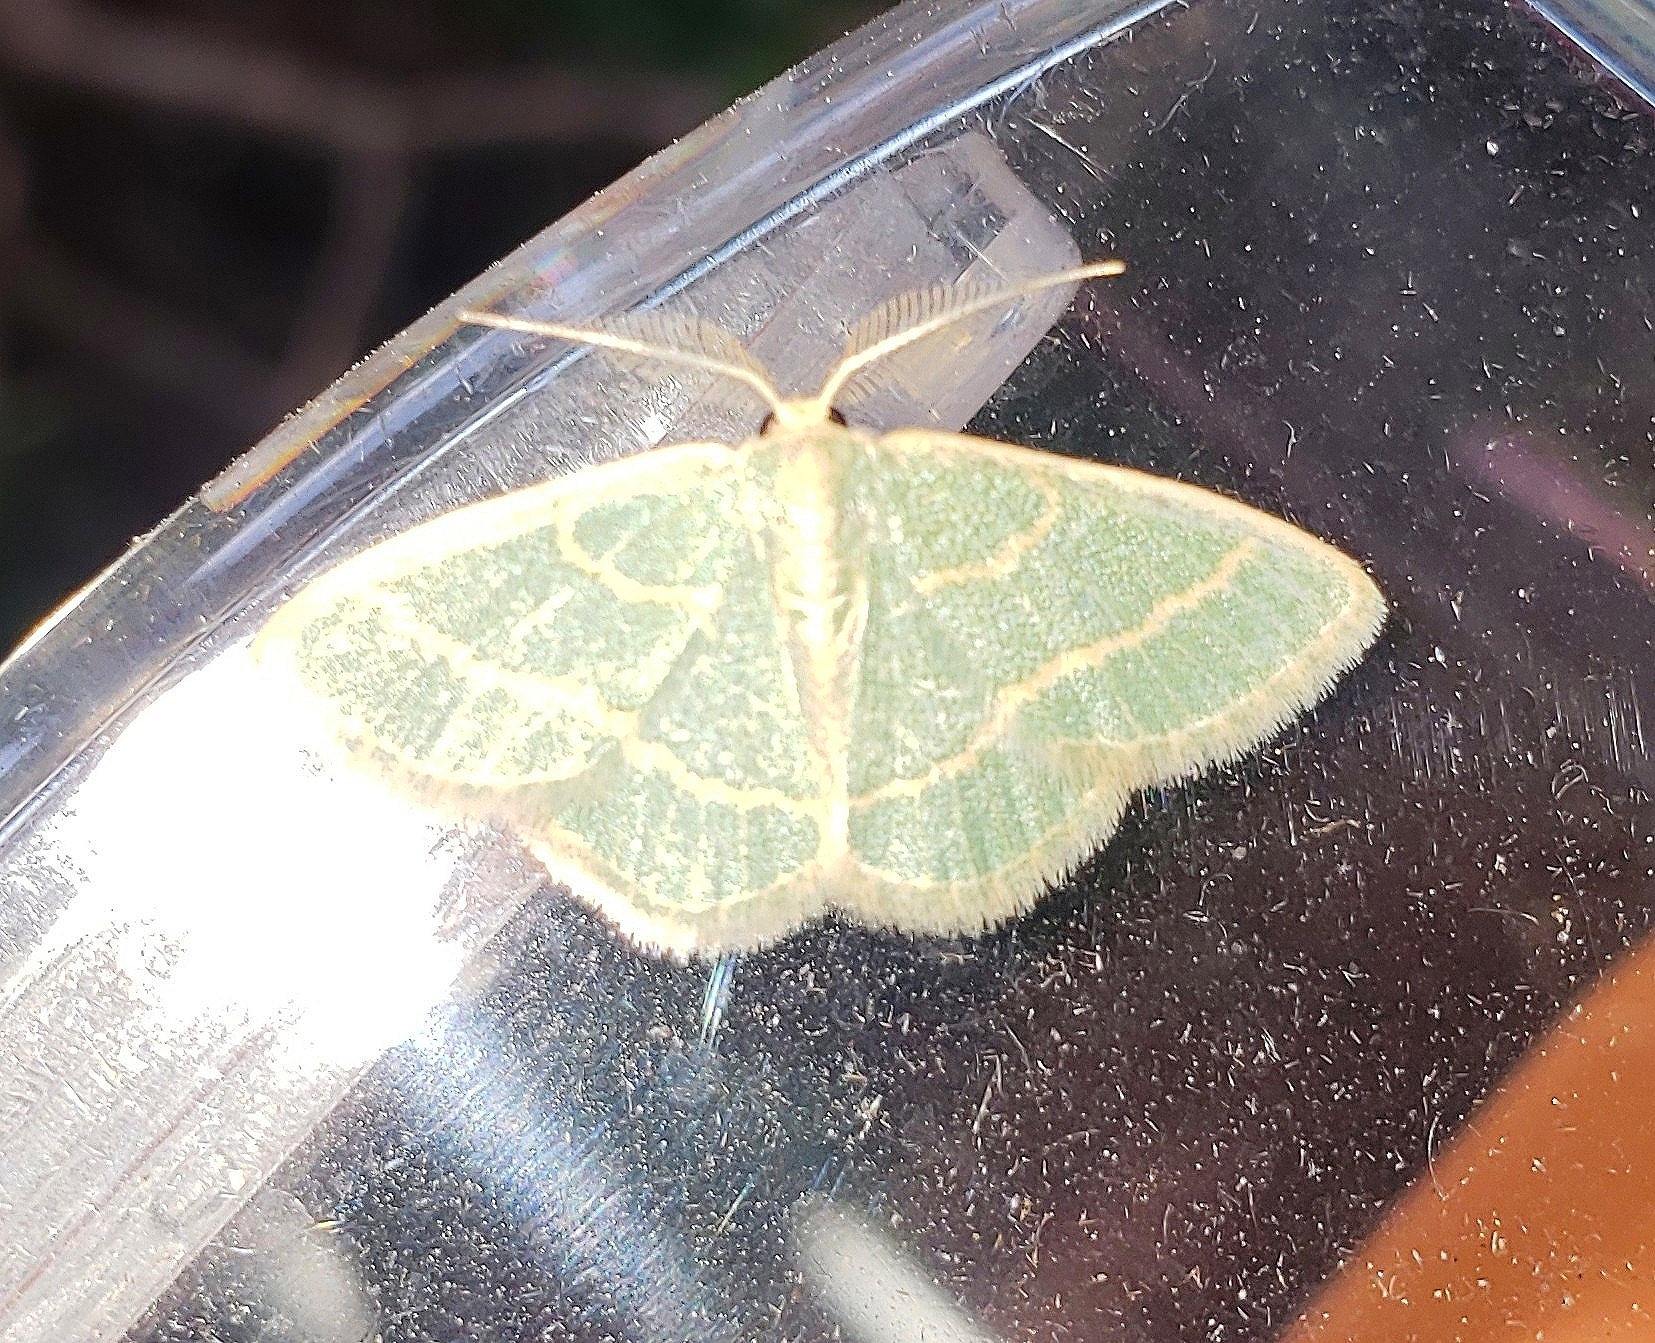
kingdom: Animalia
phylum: Arthropoda
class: Insecta
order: Lepidoptera
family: Geometridae
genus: Chlorochlamys
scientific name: Chlorochlamys chloroleucaria
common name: Blackberry looper
